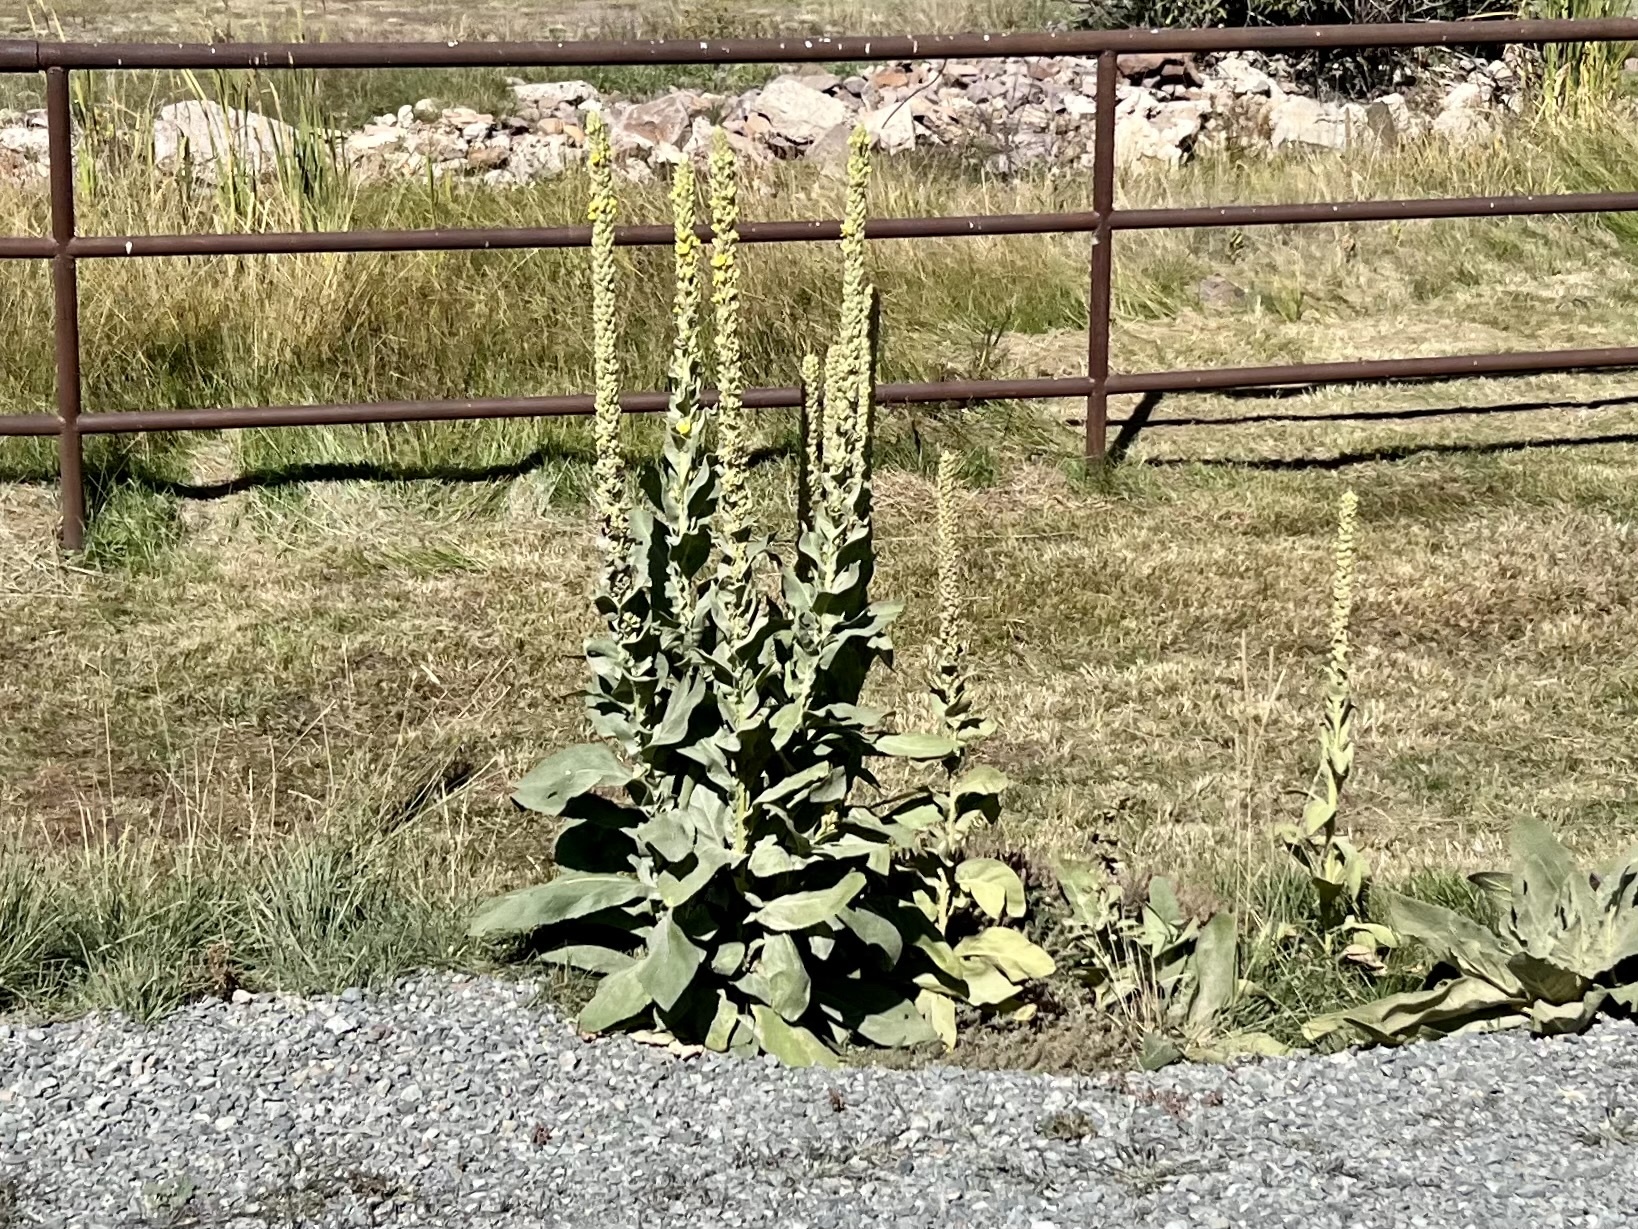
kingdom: Plantae
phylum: Tracheophyta
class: Magnoliopsida
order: Lamiales
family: Scrophulariaceae
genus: Verbascum
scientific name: Verbascum thapsus
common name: Common mullein
